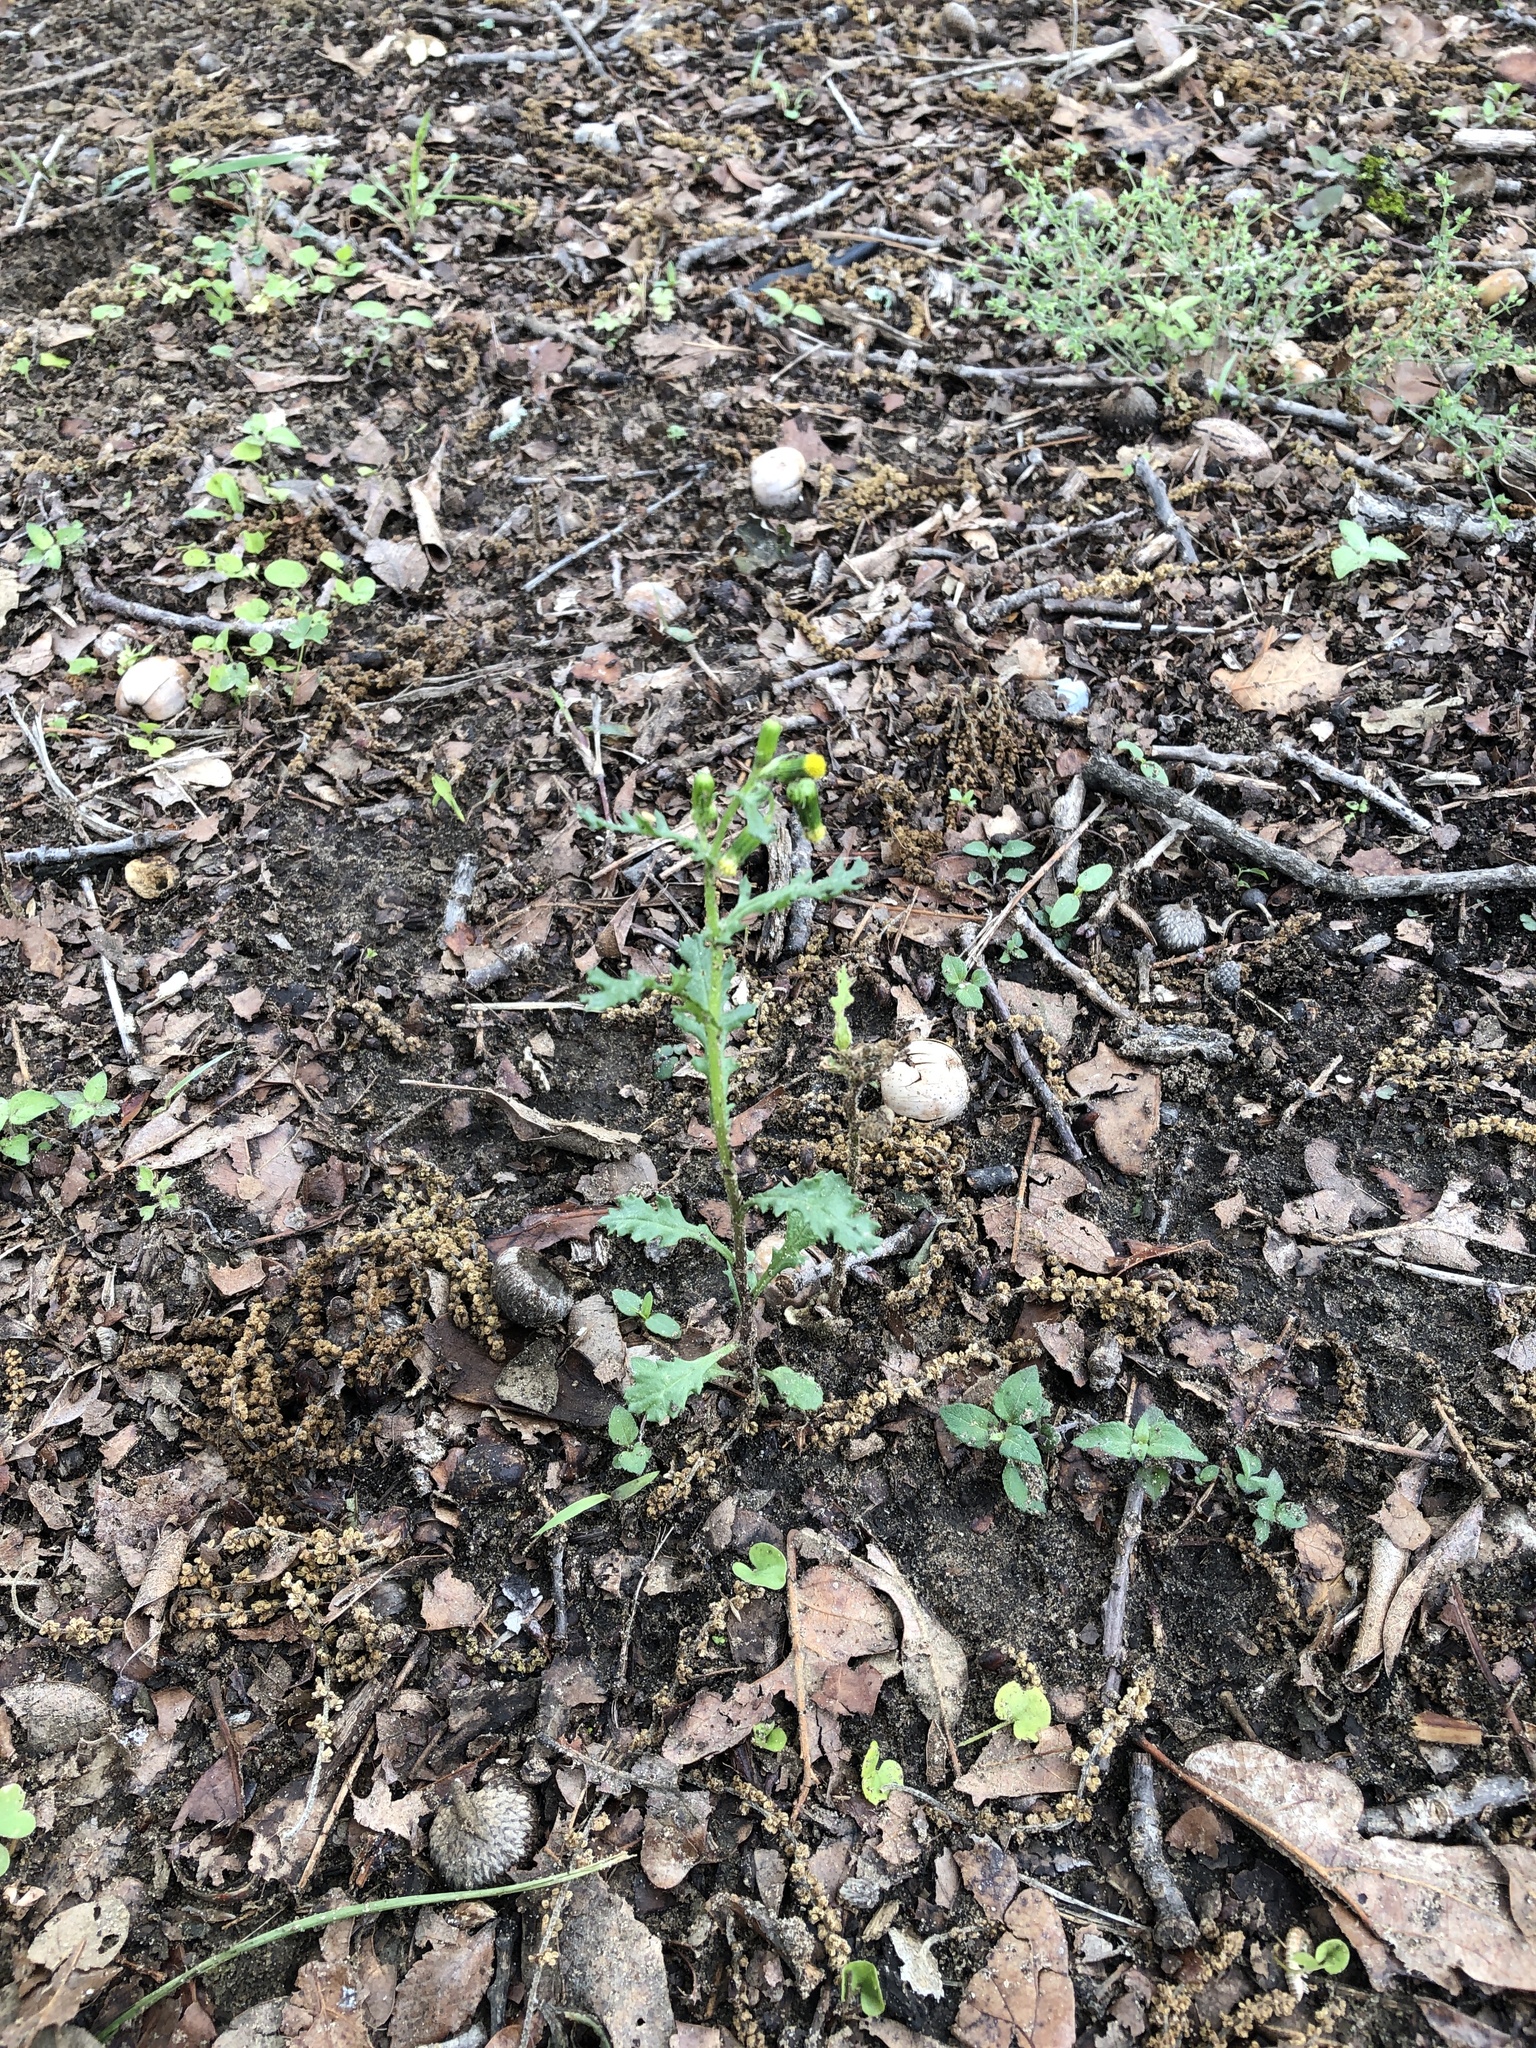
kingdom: Plantae
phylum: Tracheophyta
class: Magnoliopsida
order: Asterales
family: Asteraceae
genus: Senecio
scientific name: Senecio vulgaris
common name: Old-man-in-the-spring
